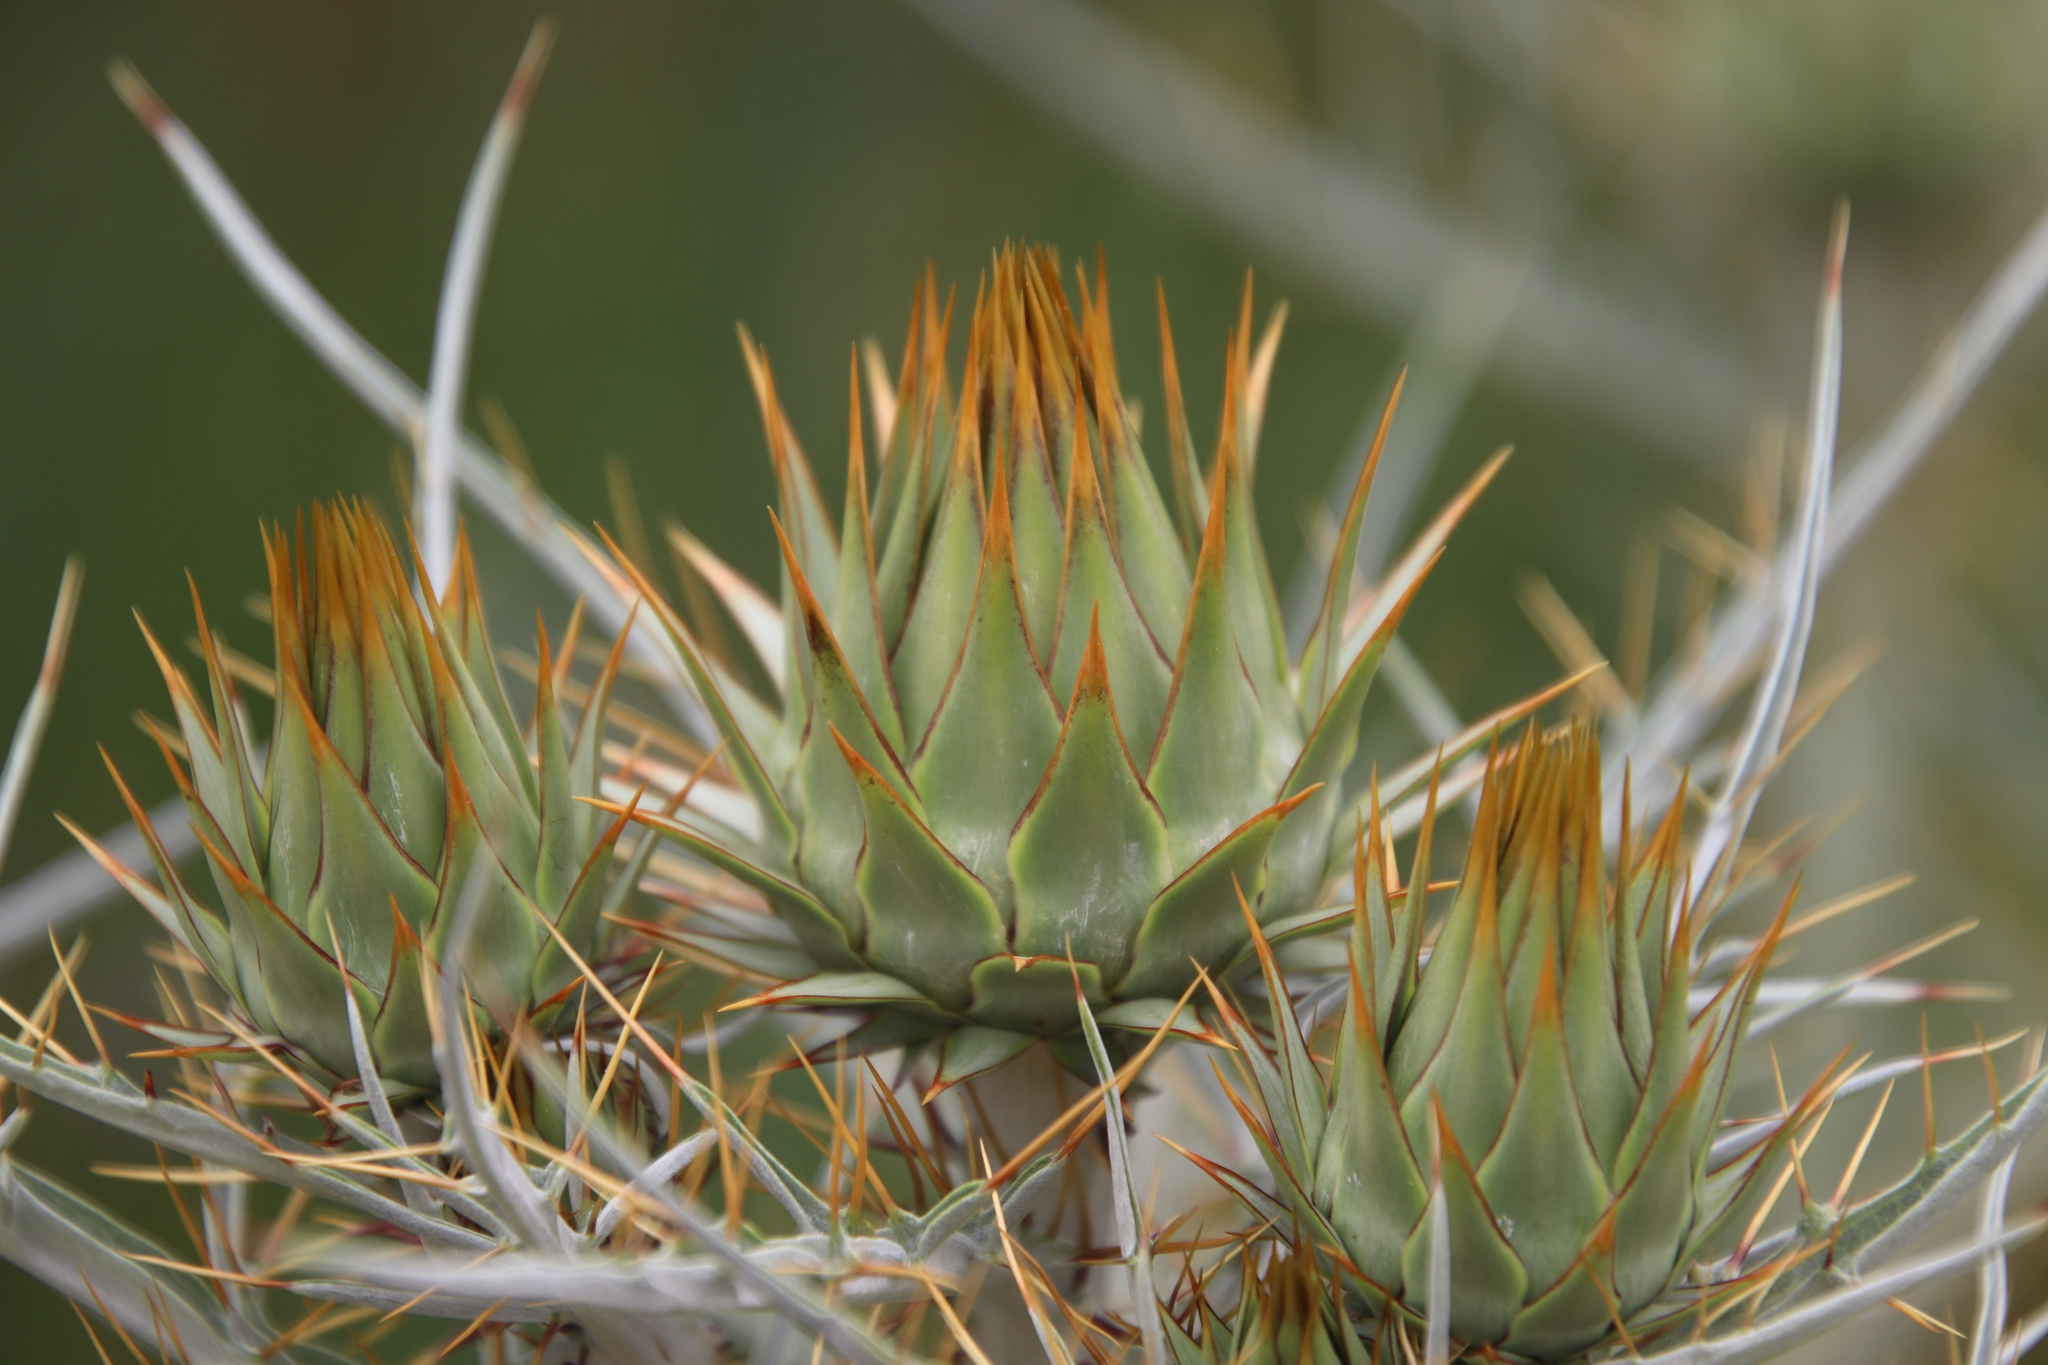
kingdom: Plantae
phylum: Tracheophyta
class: Magnoliopsida
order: Asterales
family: Asteraceae
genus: Cynara
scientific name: Cynara cardunculus
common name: Globe artichoke
